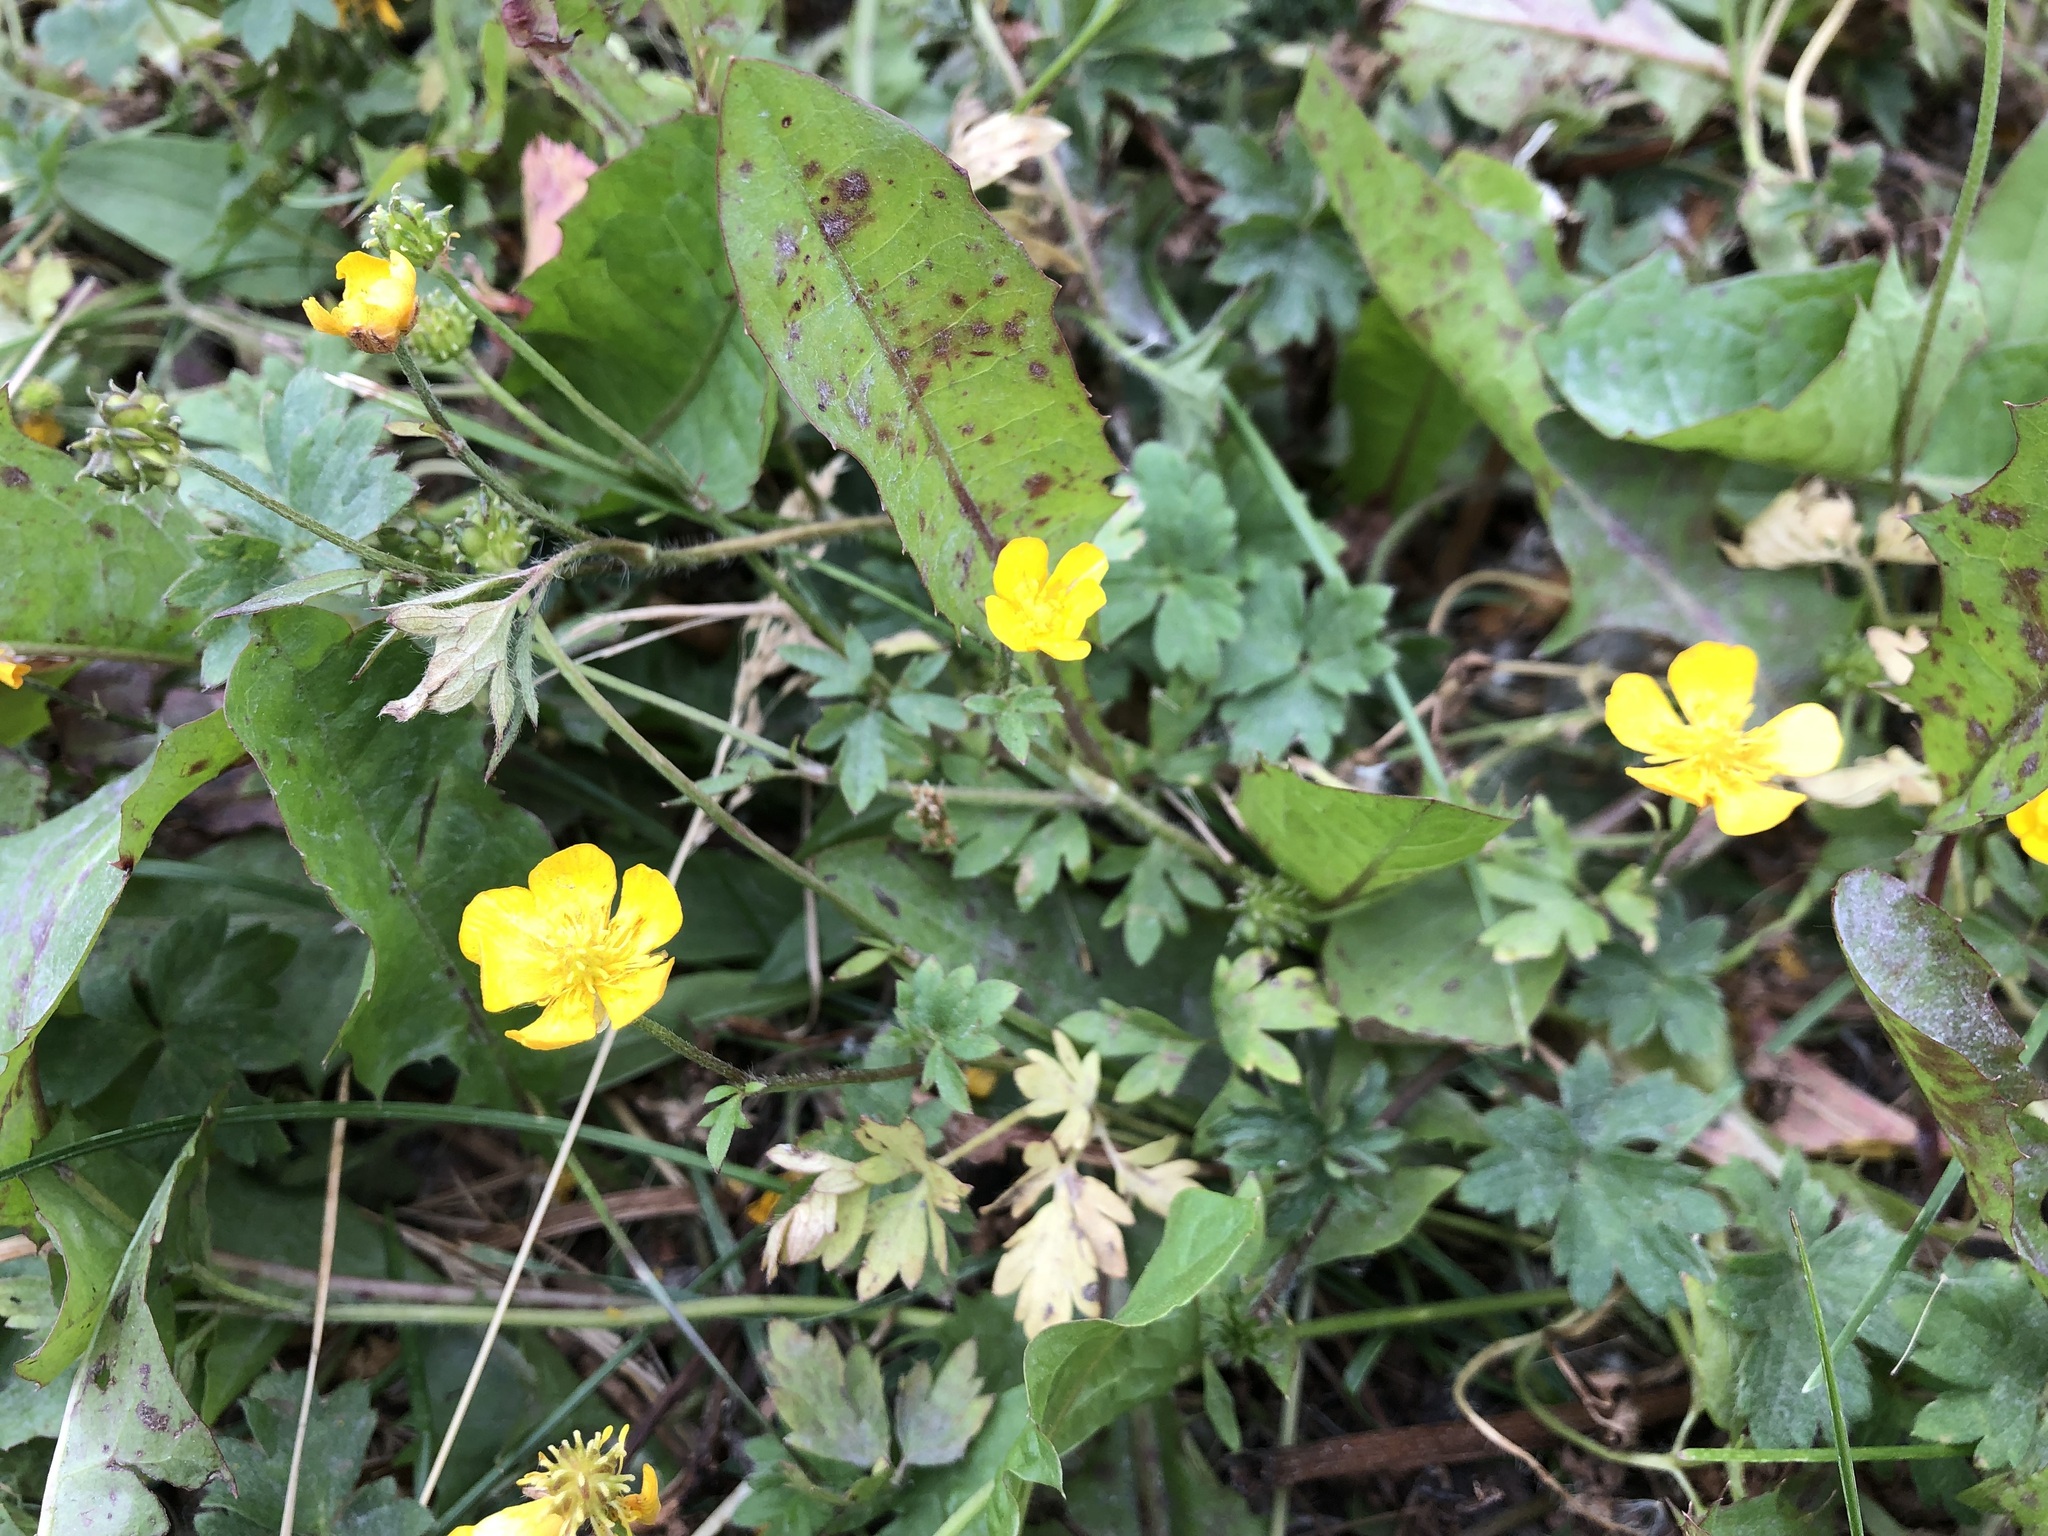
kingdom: Plantae
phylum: Tracheophyta
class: Magnoliopsida
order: Ranunculales
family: Ranunculaceae
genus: Ranunculus
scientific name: Ranunculus repens
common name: Creeping buttercup
